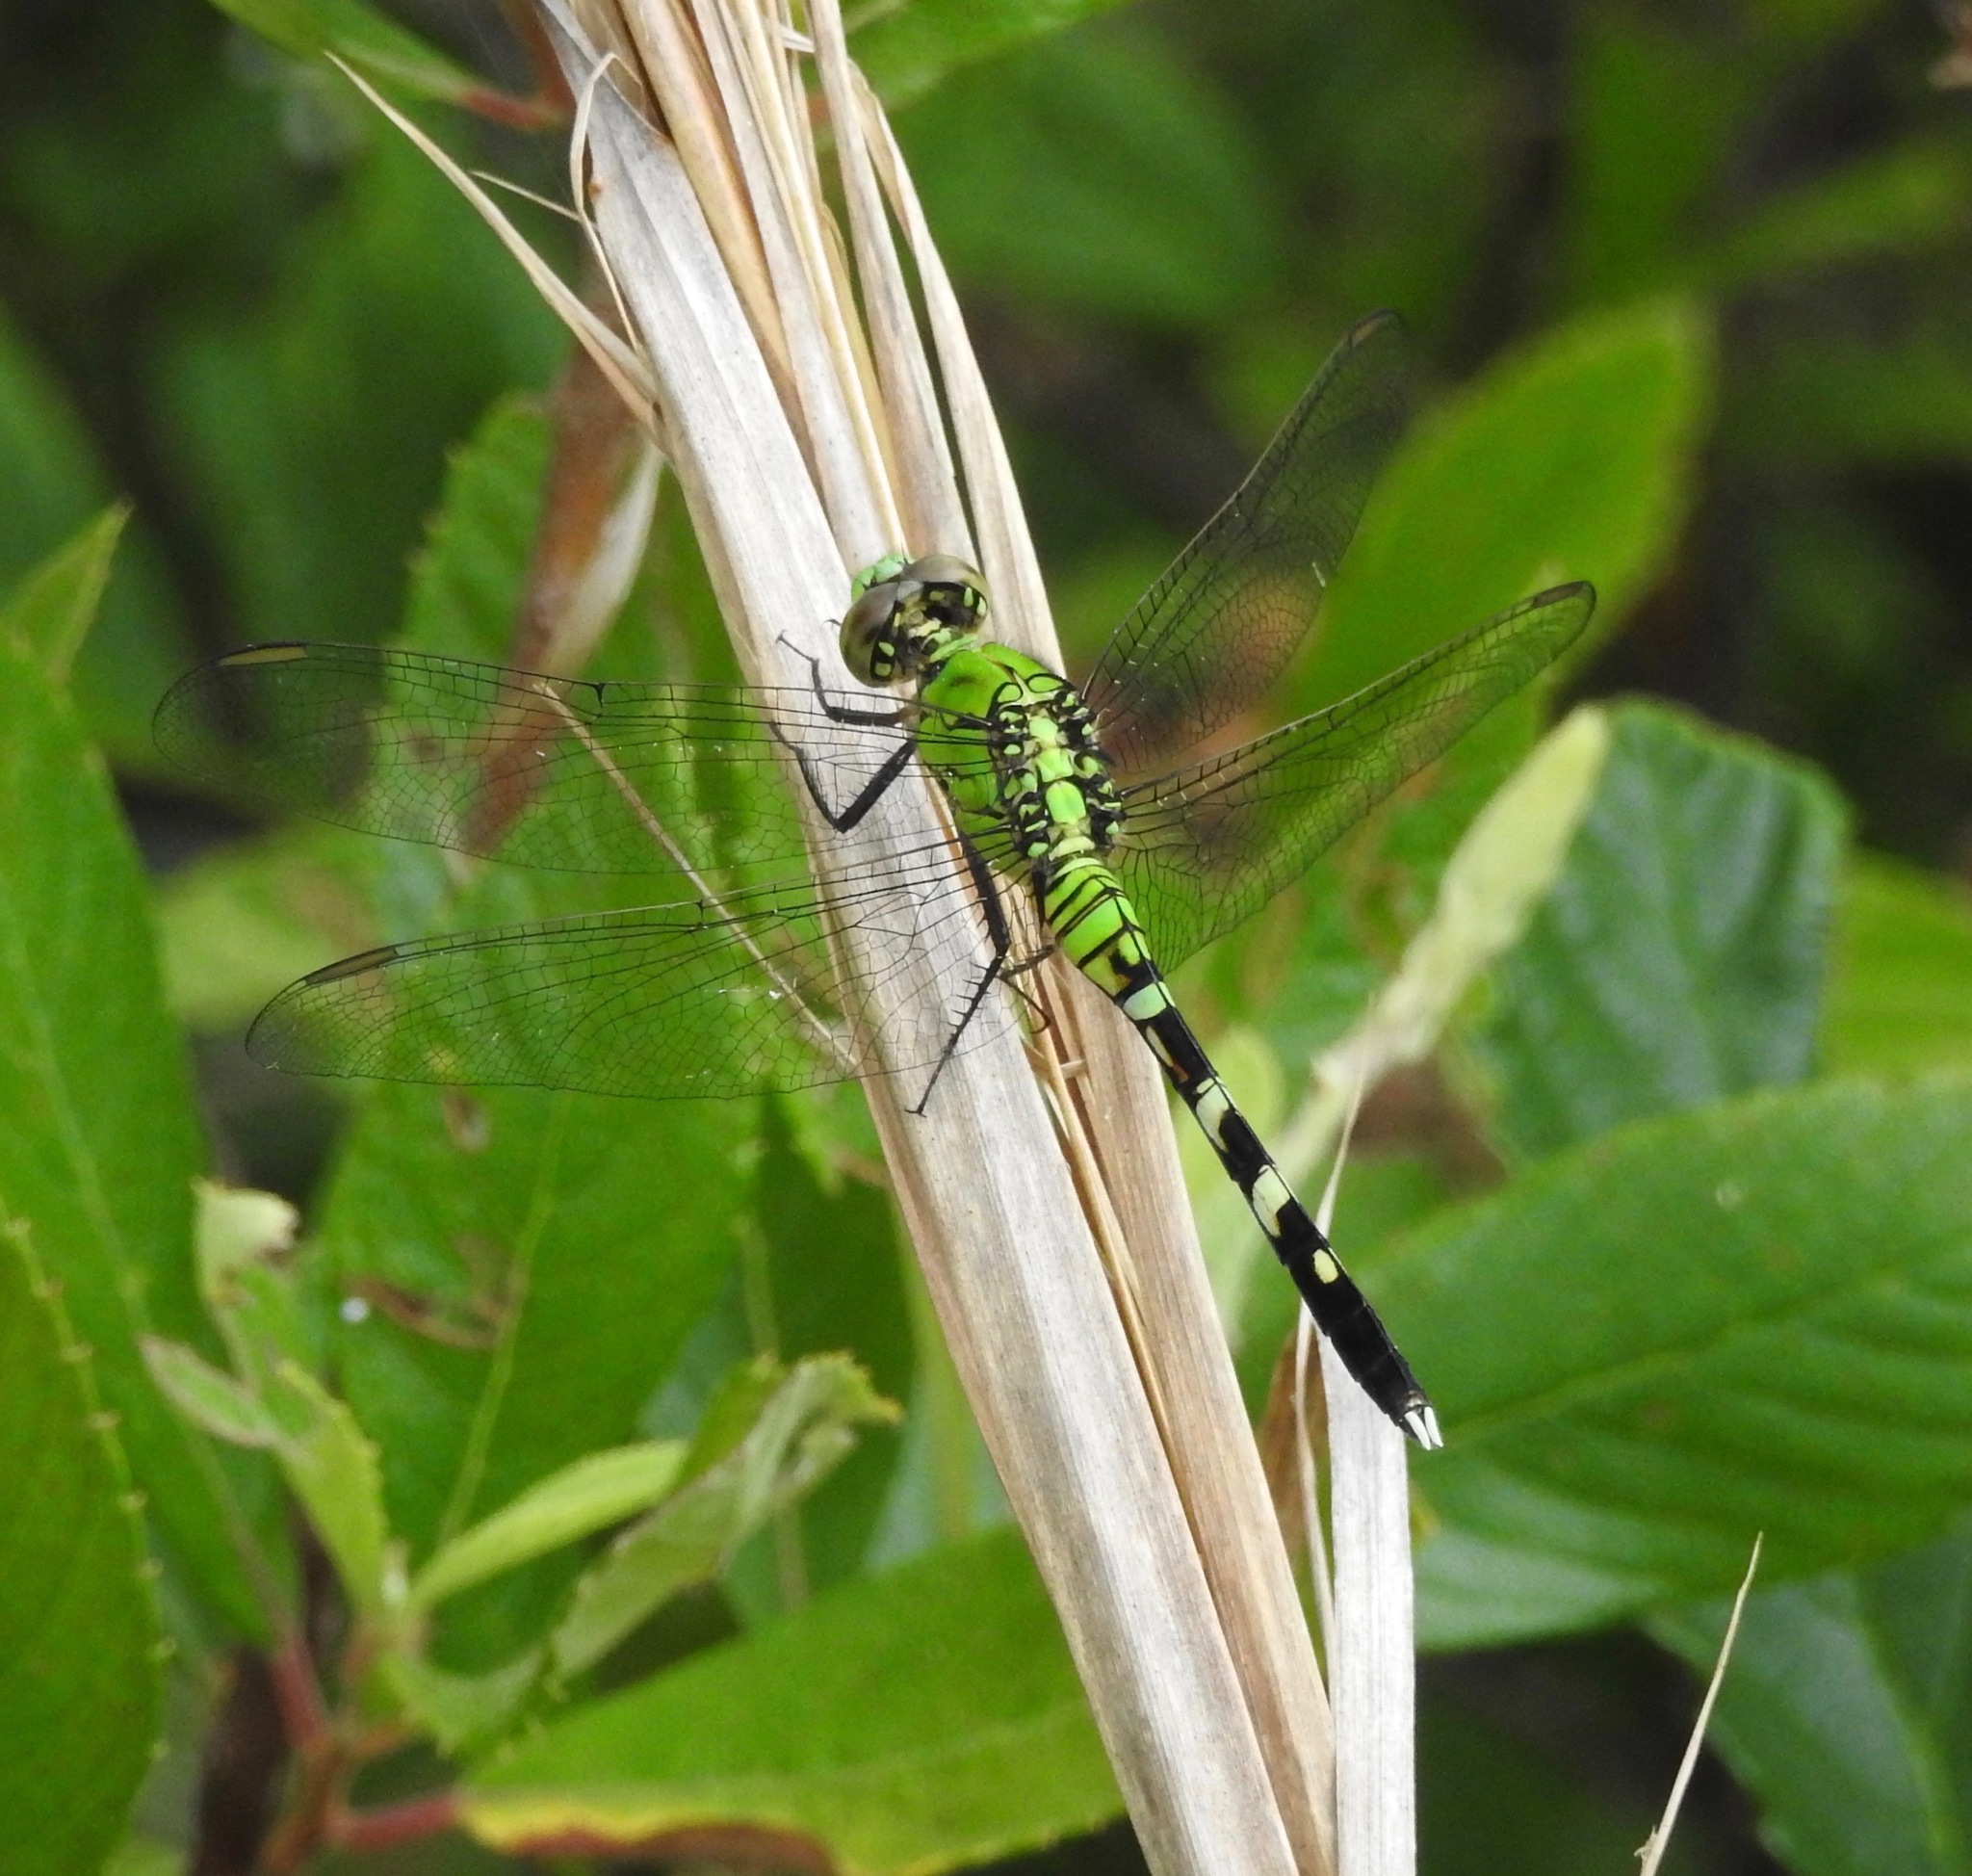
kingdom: Animalia
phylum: Arthropoda
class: Insecta
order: Odonata
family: Libellulidae
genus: Erythemis
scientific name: Erythemis simplicicollis
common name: Eastern pondhawk
